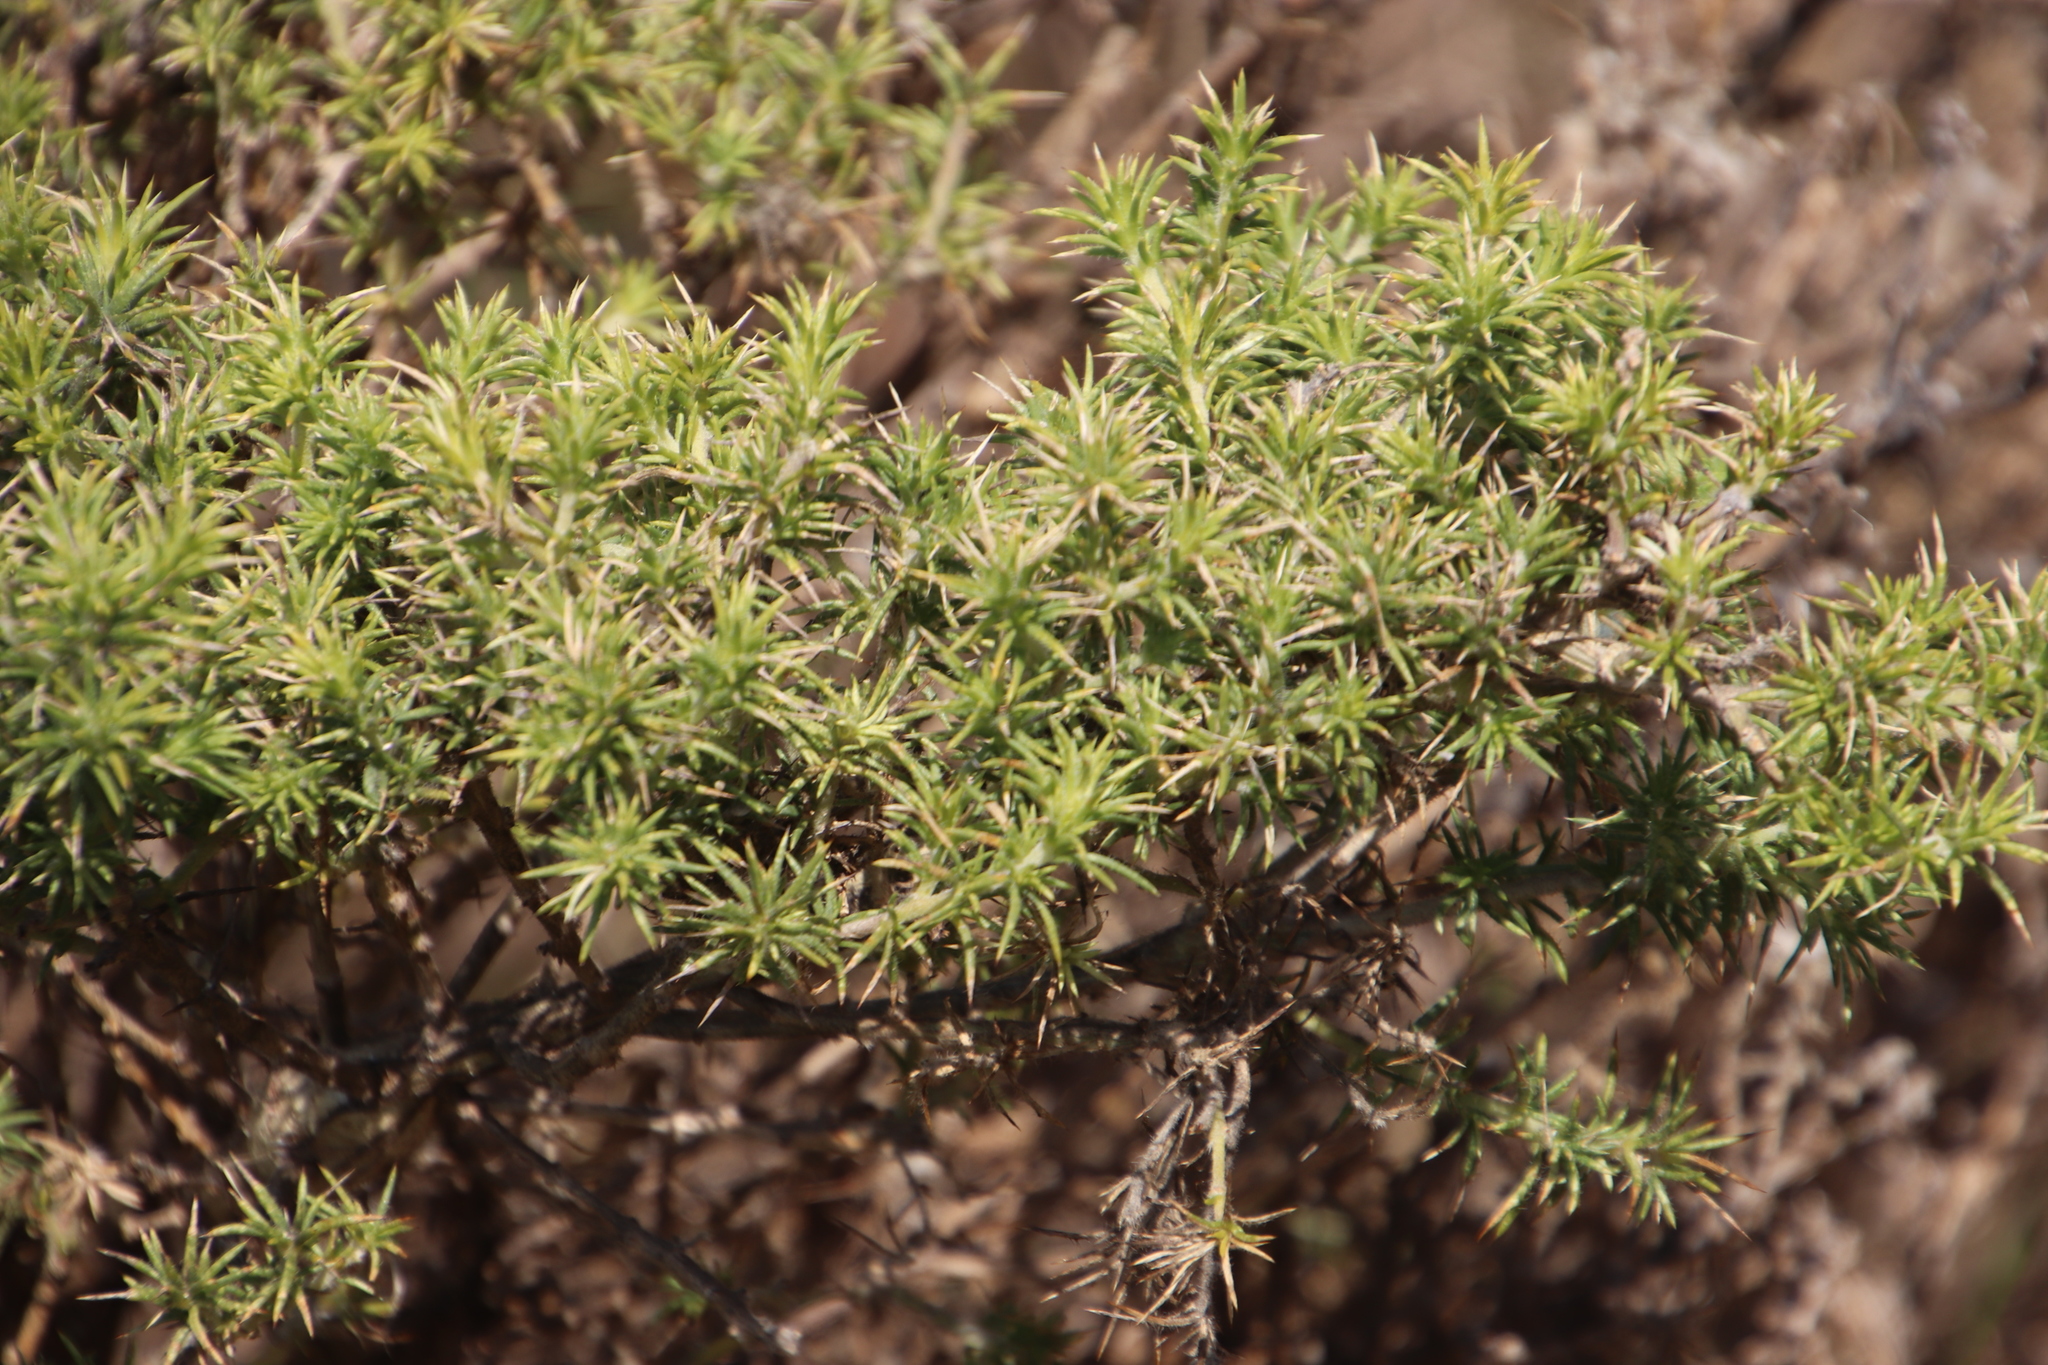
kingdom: Plantae
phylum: Tracheophyta
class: Magnoliopsida
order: Fabales
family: Fabaceae
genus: Aspalathus
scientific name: Aspalathus chenopoda
